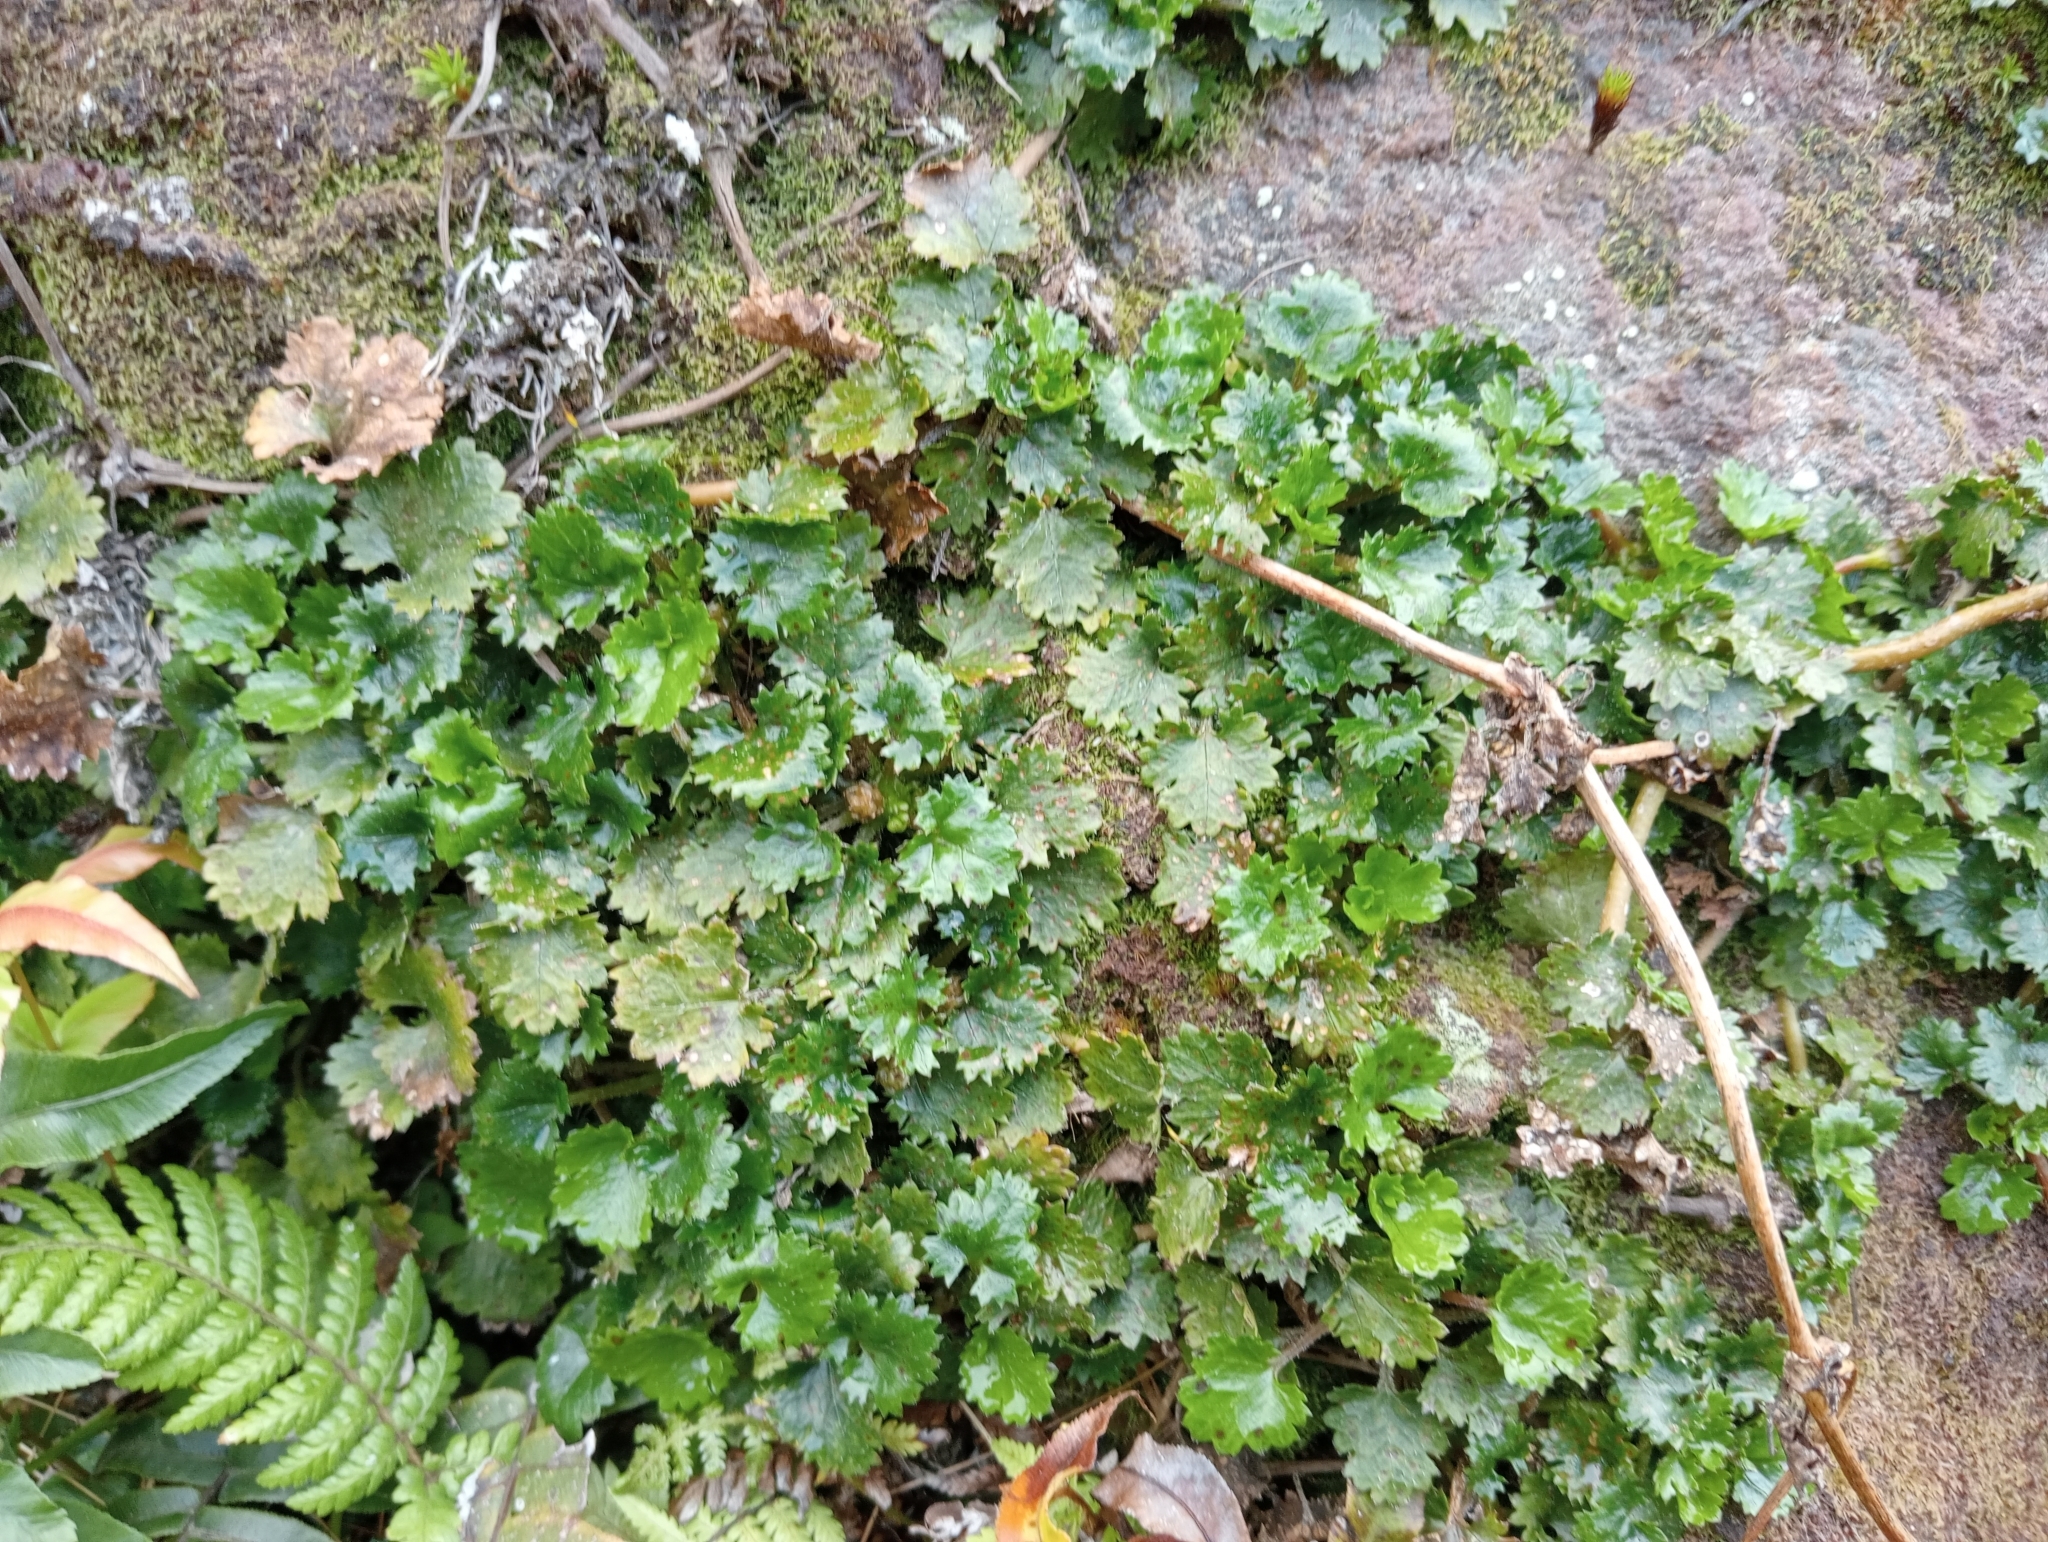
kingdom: Plantae
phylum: Tracheophyta
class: Magnoliopsida
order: Gunnerales
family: Gunneraceae
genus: Gunnera
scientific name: Gunnera monoica
